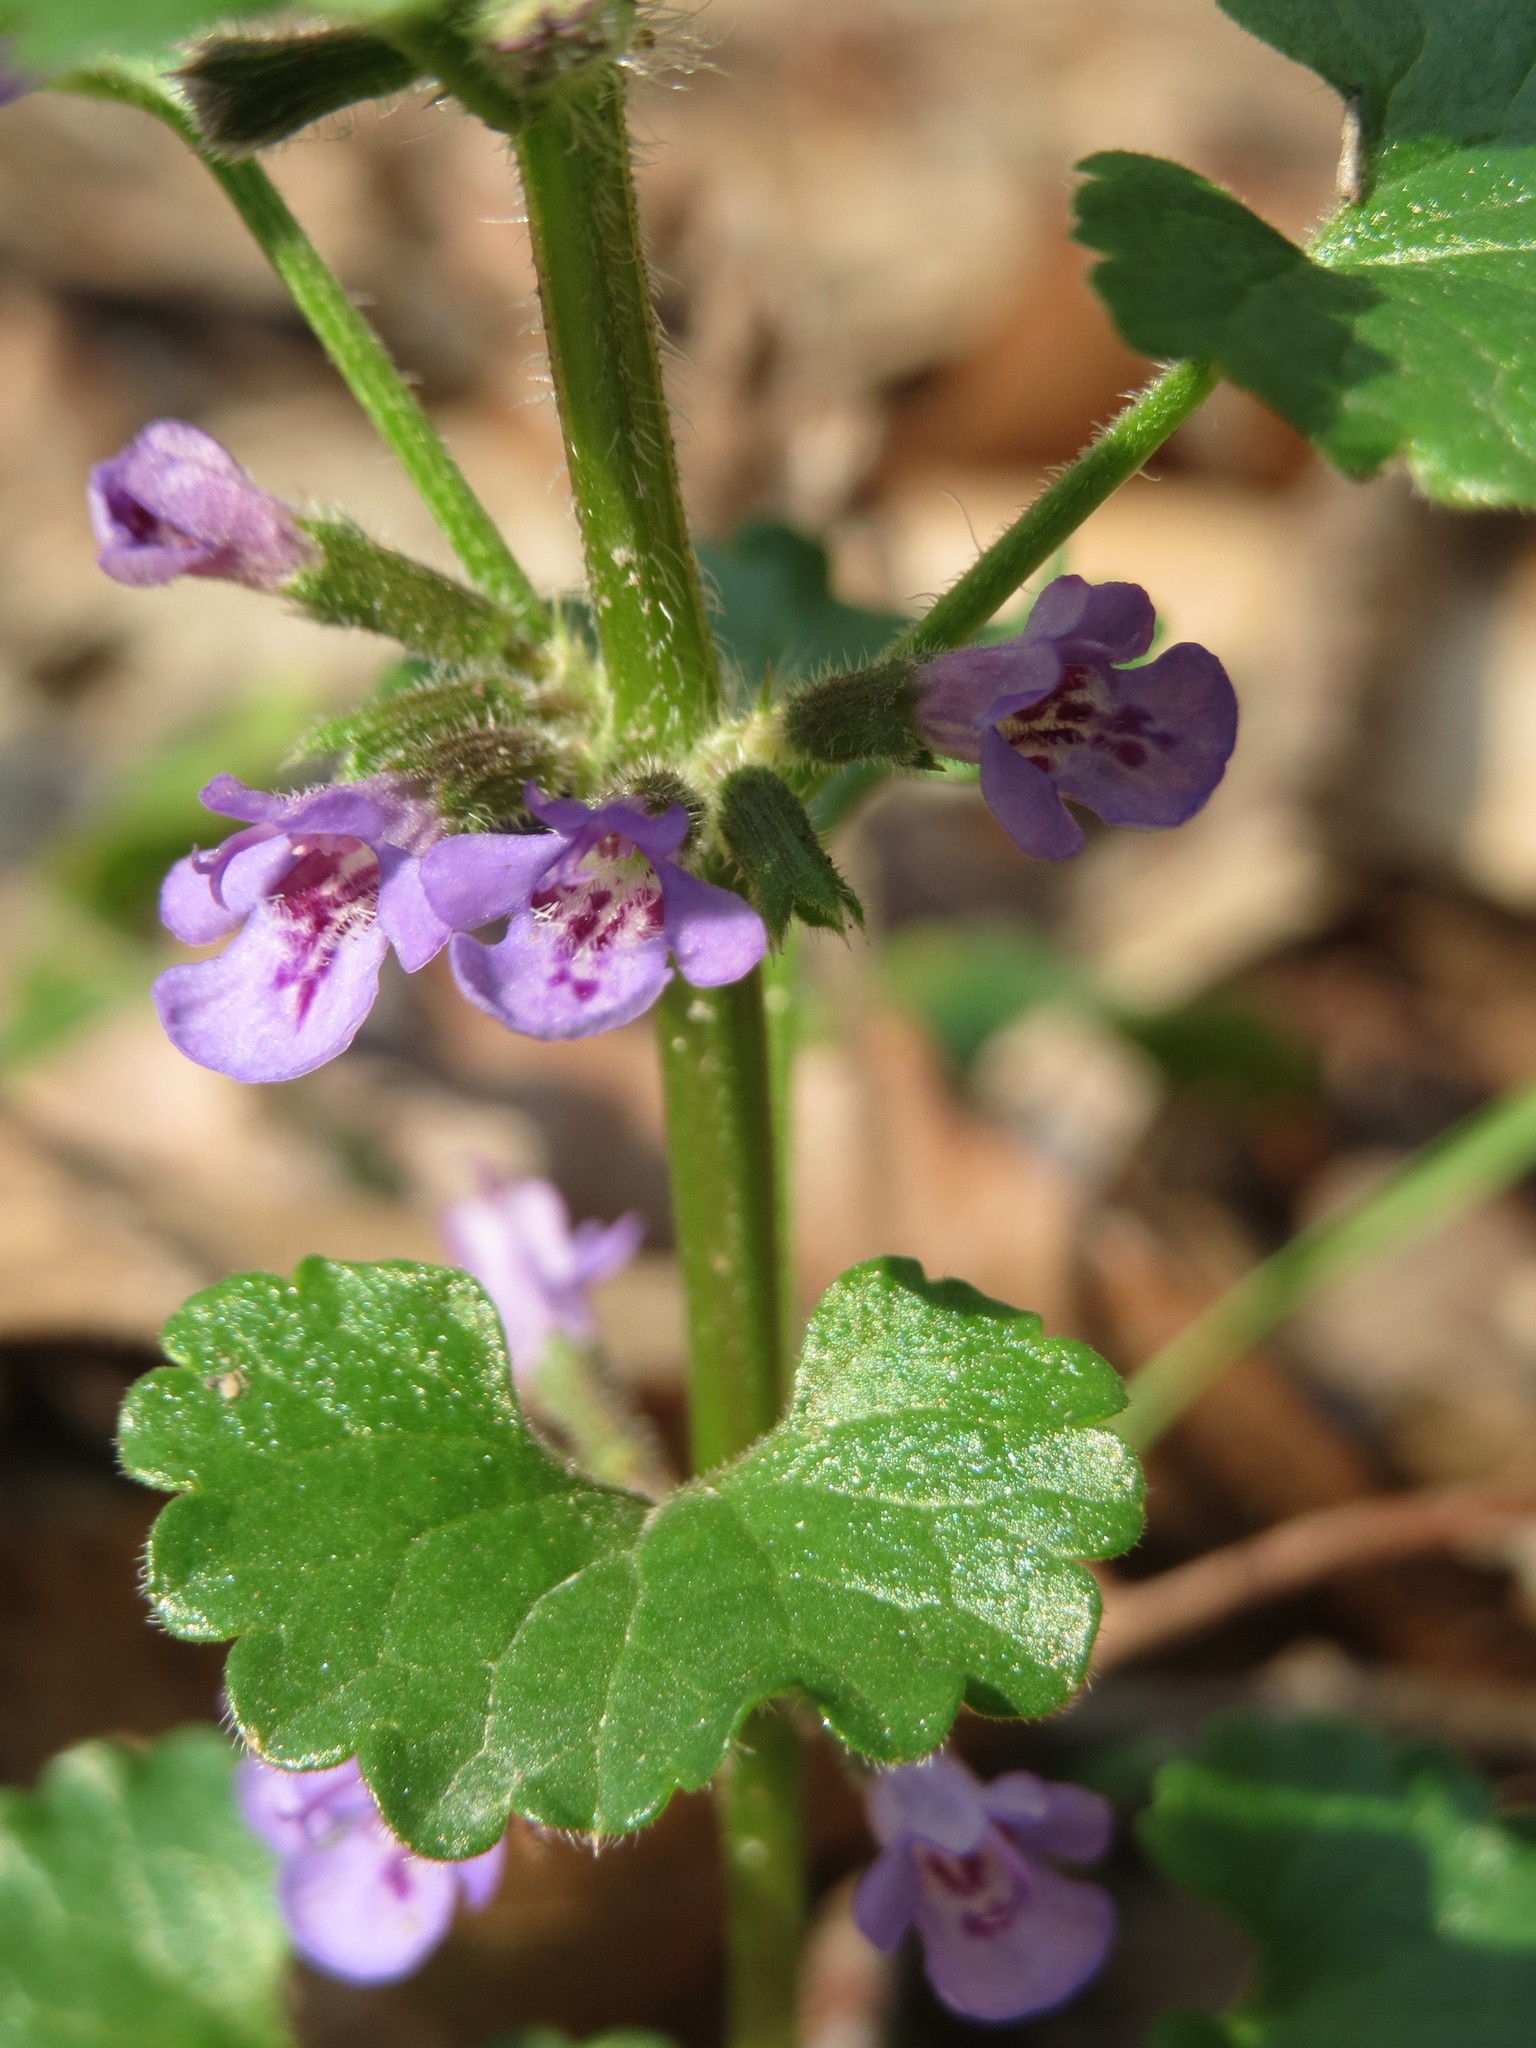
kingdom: Plantae
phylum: Tracheophyta
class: Magnoliopsida
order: Lamiales
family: Lamiaceae
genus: Glechoma
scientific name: Glechoma hederacea
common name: Ground ivy
